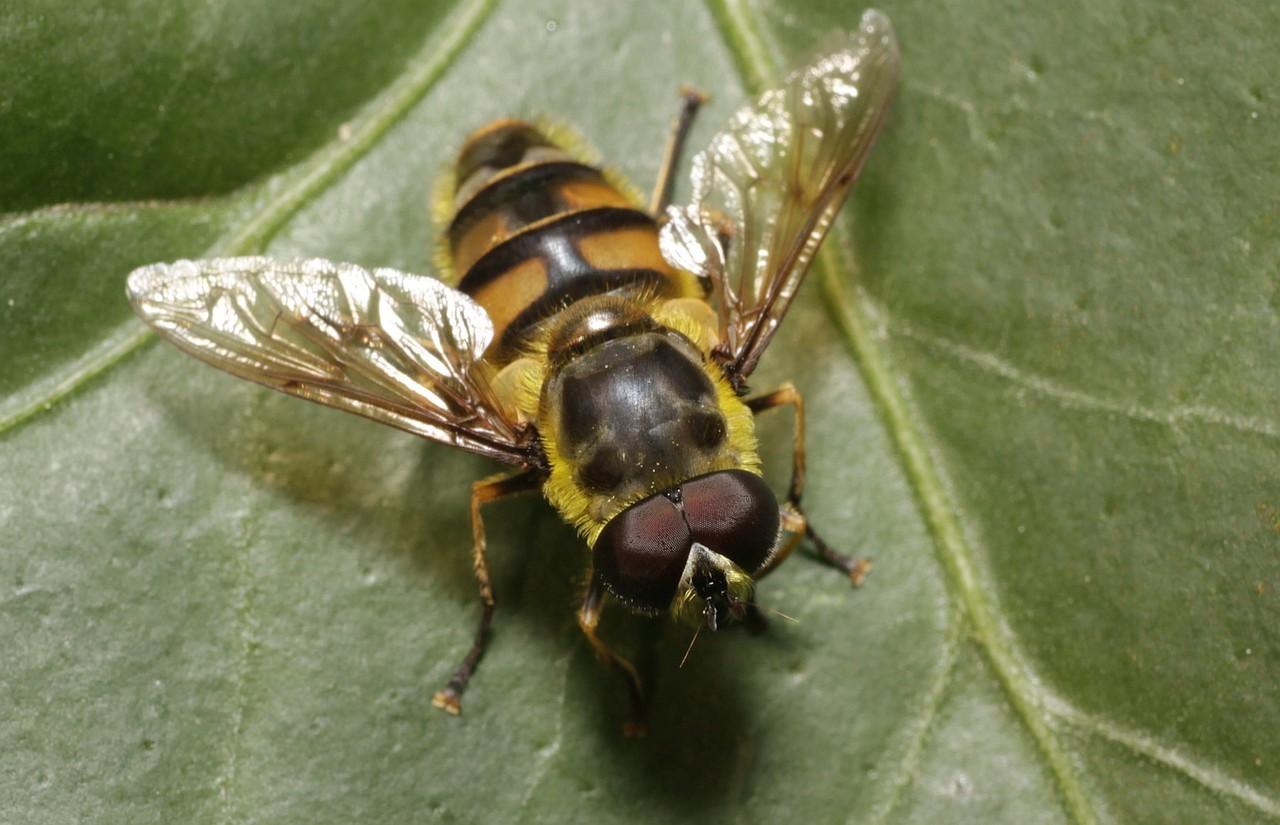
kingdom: Animalia
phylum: Arthropoda
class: Insecta
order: Diptera
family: Syrphidae
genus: Myathropa
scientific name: Myathropa florea
